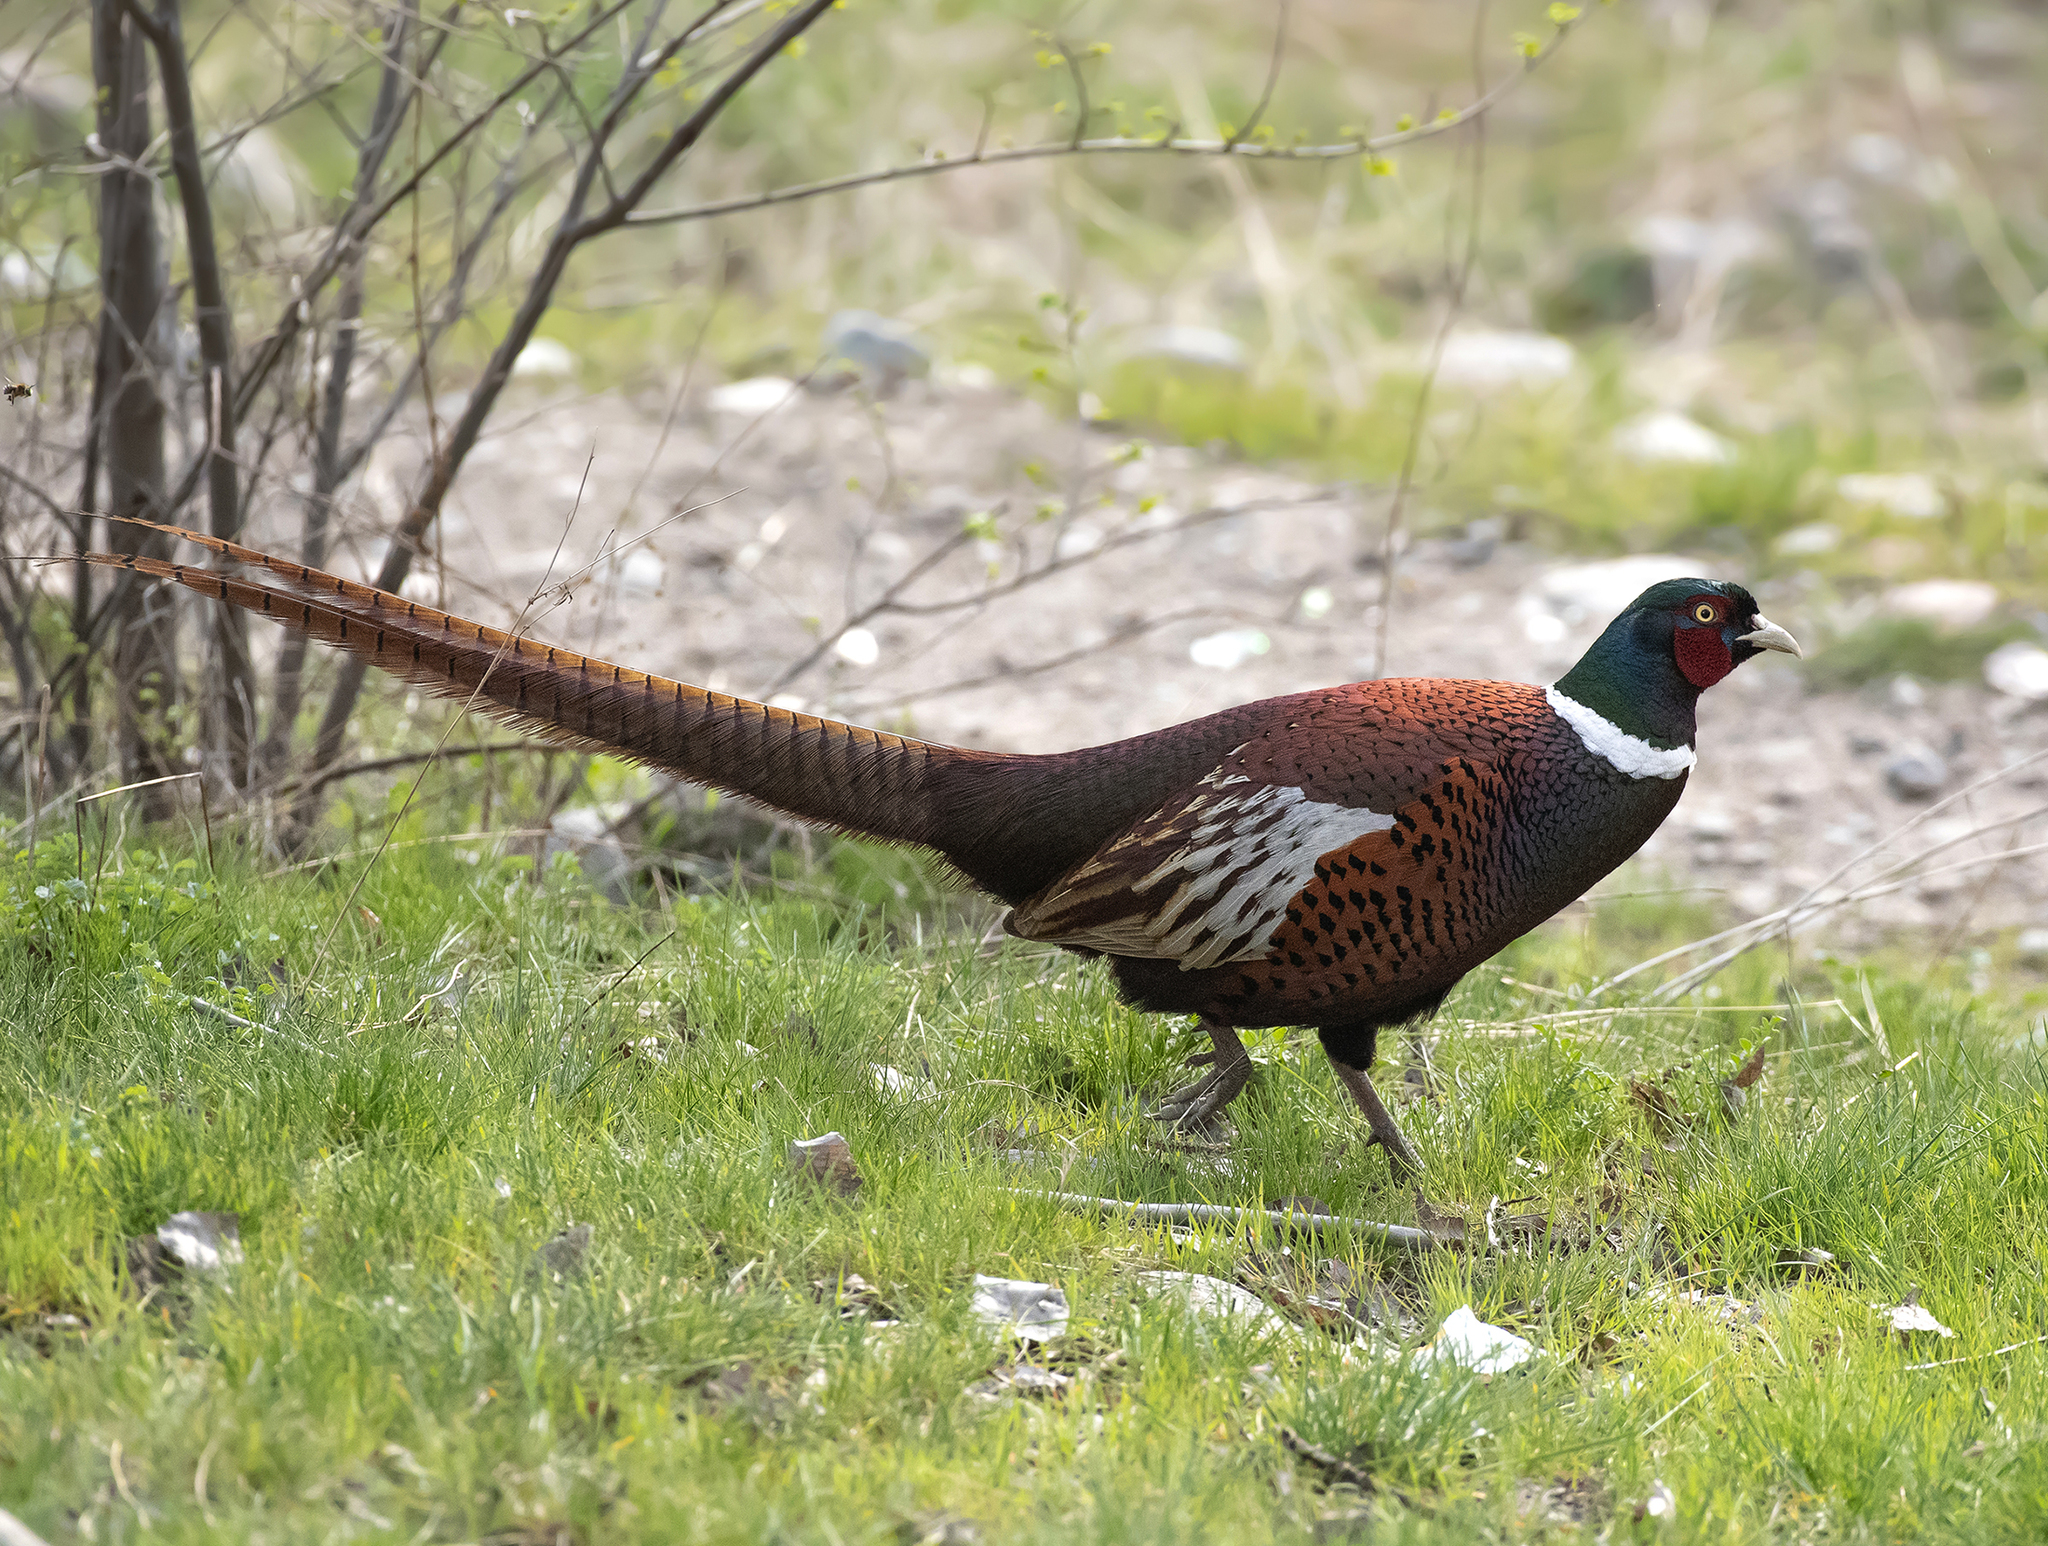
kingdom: Animalia
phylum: Chordata
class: Aves
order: Galliformes
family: Phasianidae
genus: Phasianus
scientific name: Phasianus colchicus
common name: Common pheasant
